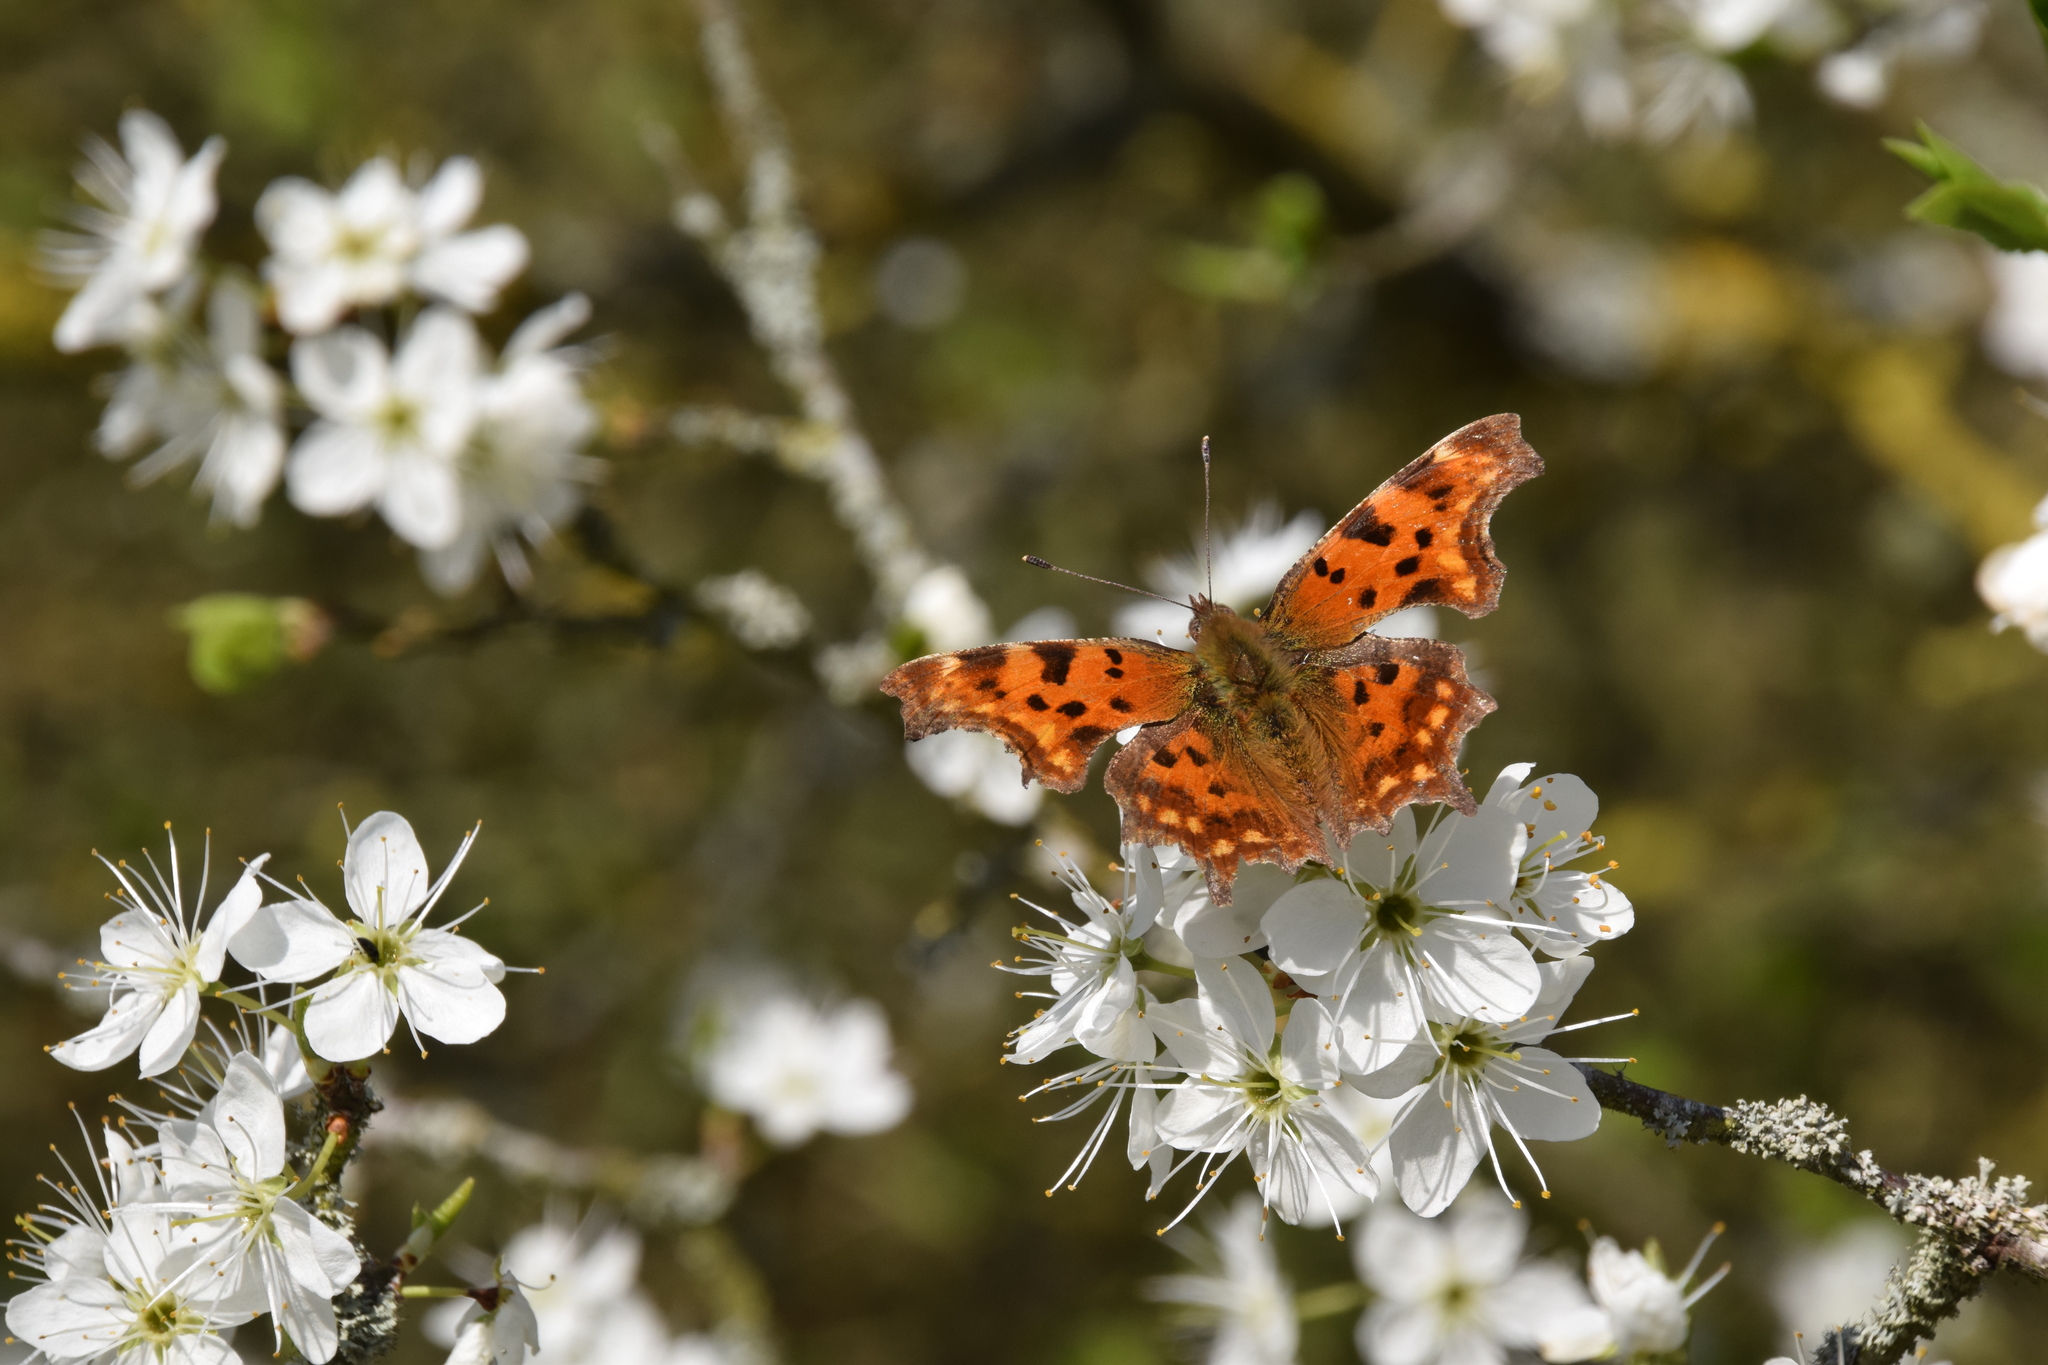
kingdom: Animalia
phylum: Arthropoda
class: Insecta
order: Lepidoptera
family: Nymphalidae
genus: Polygonia
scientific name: Polygonia c-album
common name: Comma
